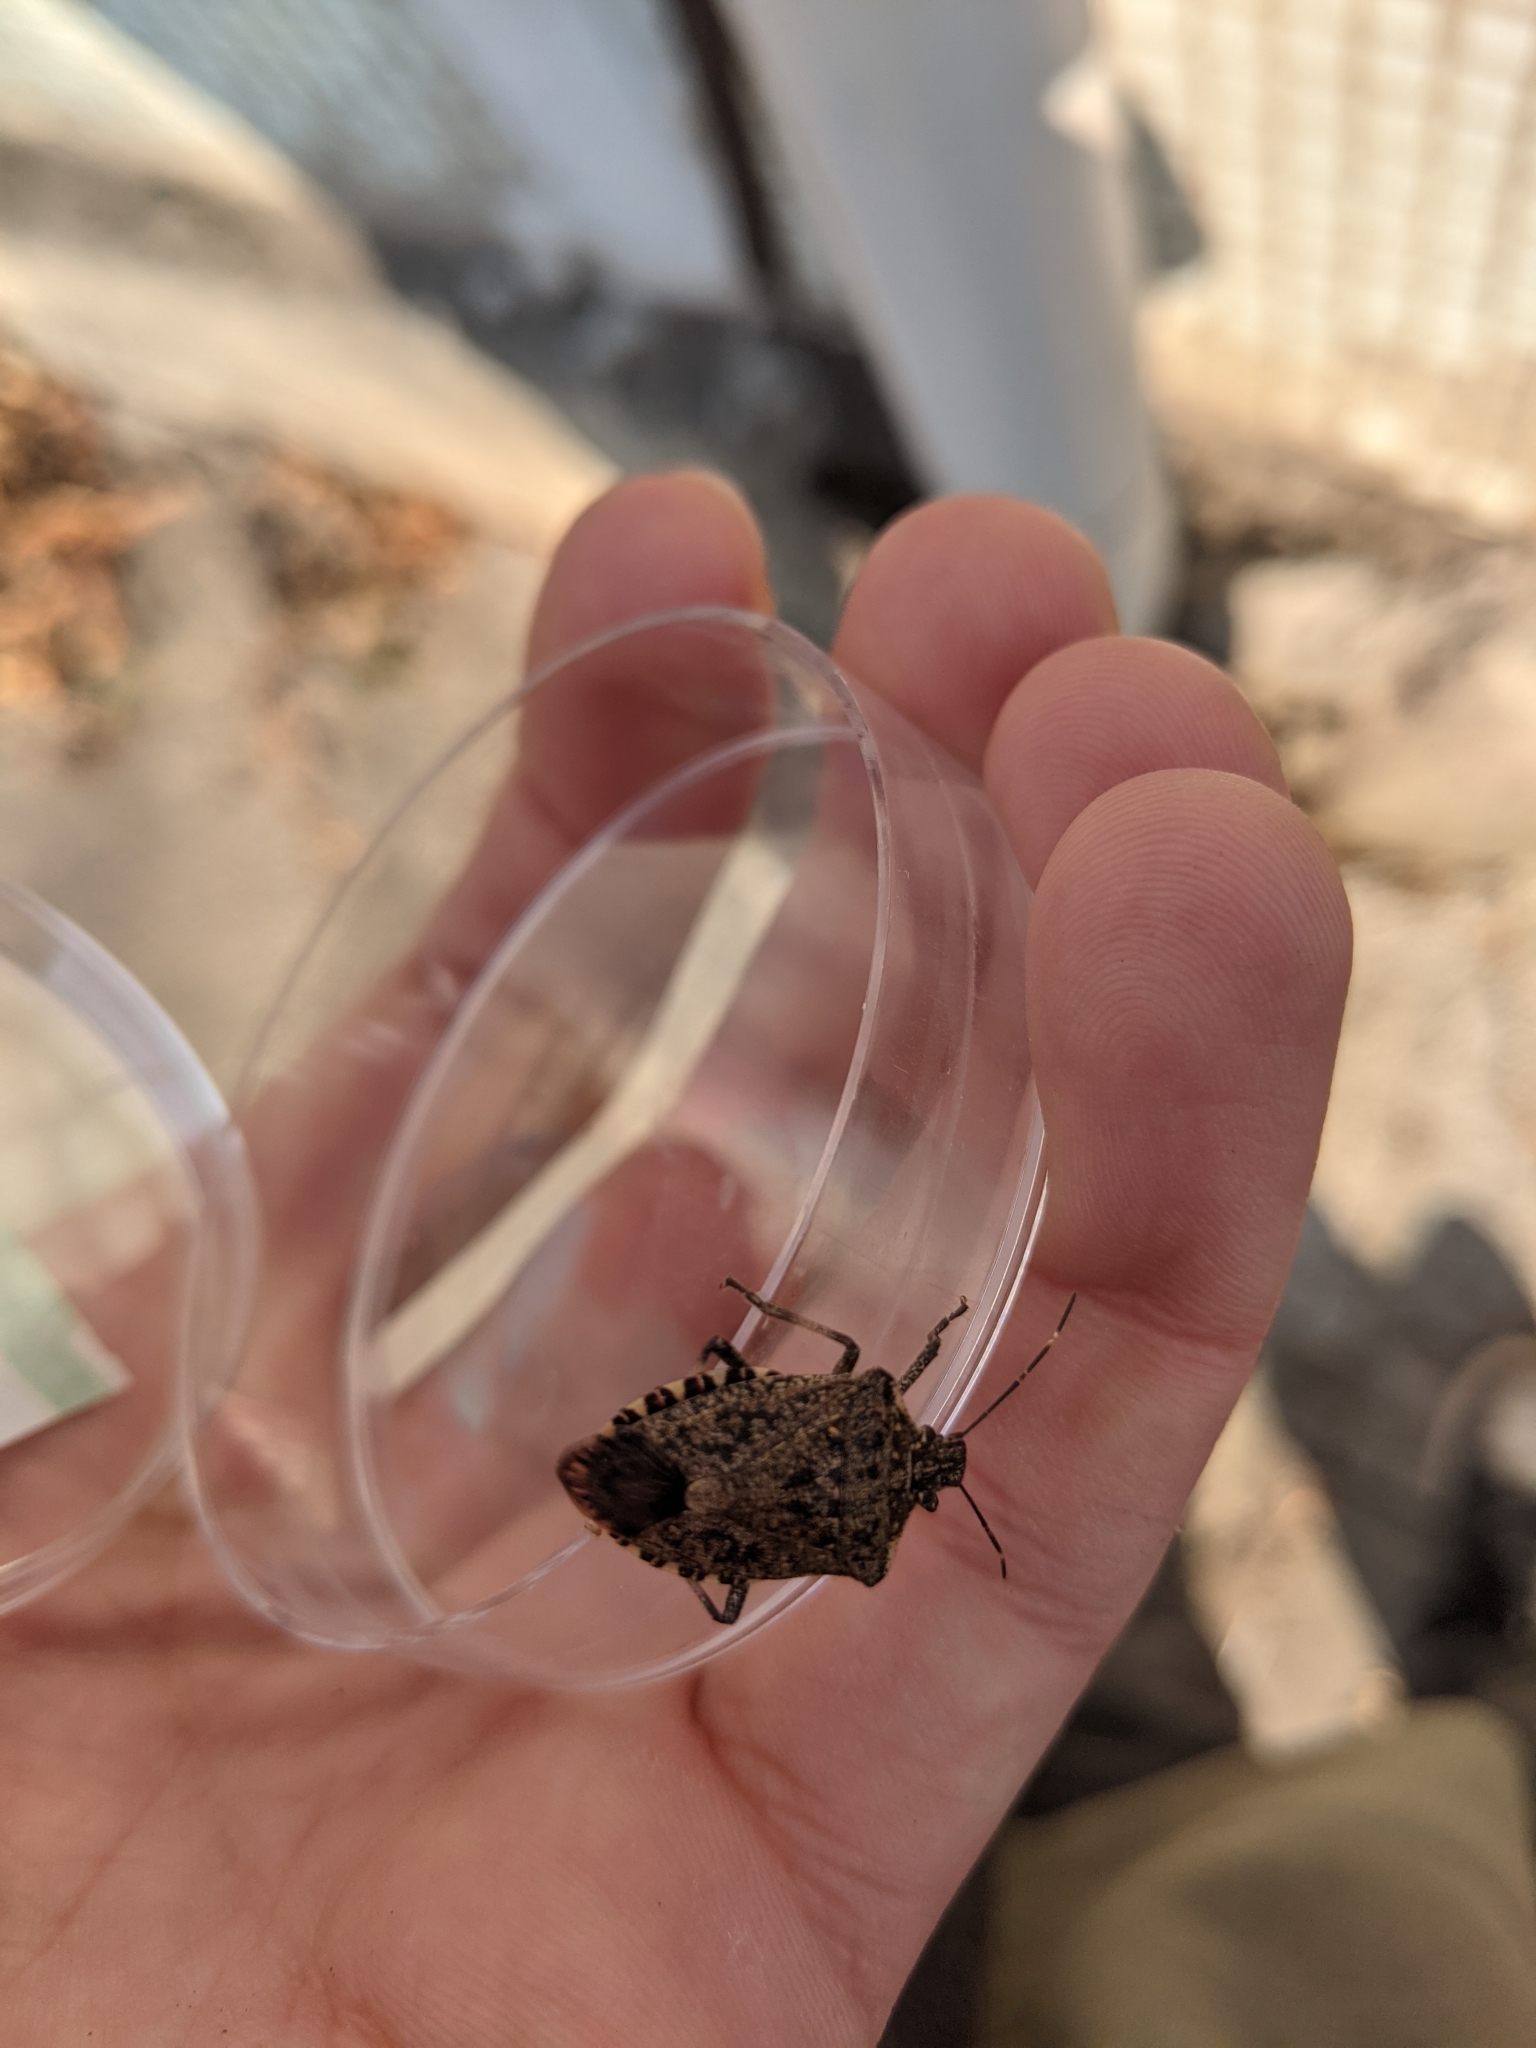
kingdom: Animalia
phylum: Arthropoda
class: Insecta
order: Hemiptera
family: Pentatomidae
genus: Halyomorpha
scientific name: Halyomorpha halys
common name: Brown marmorated stink bug
